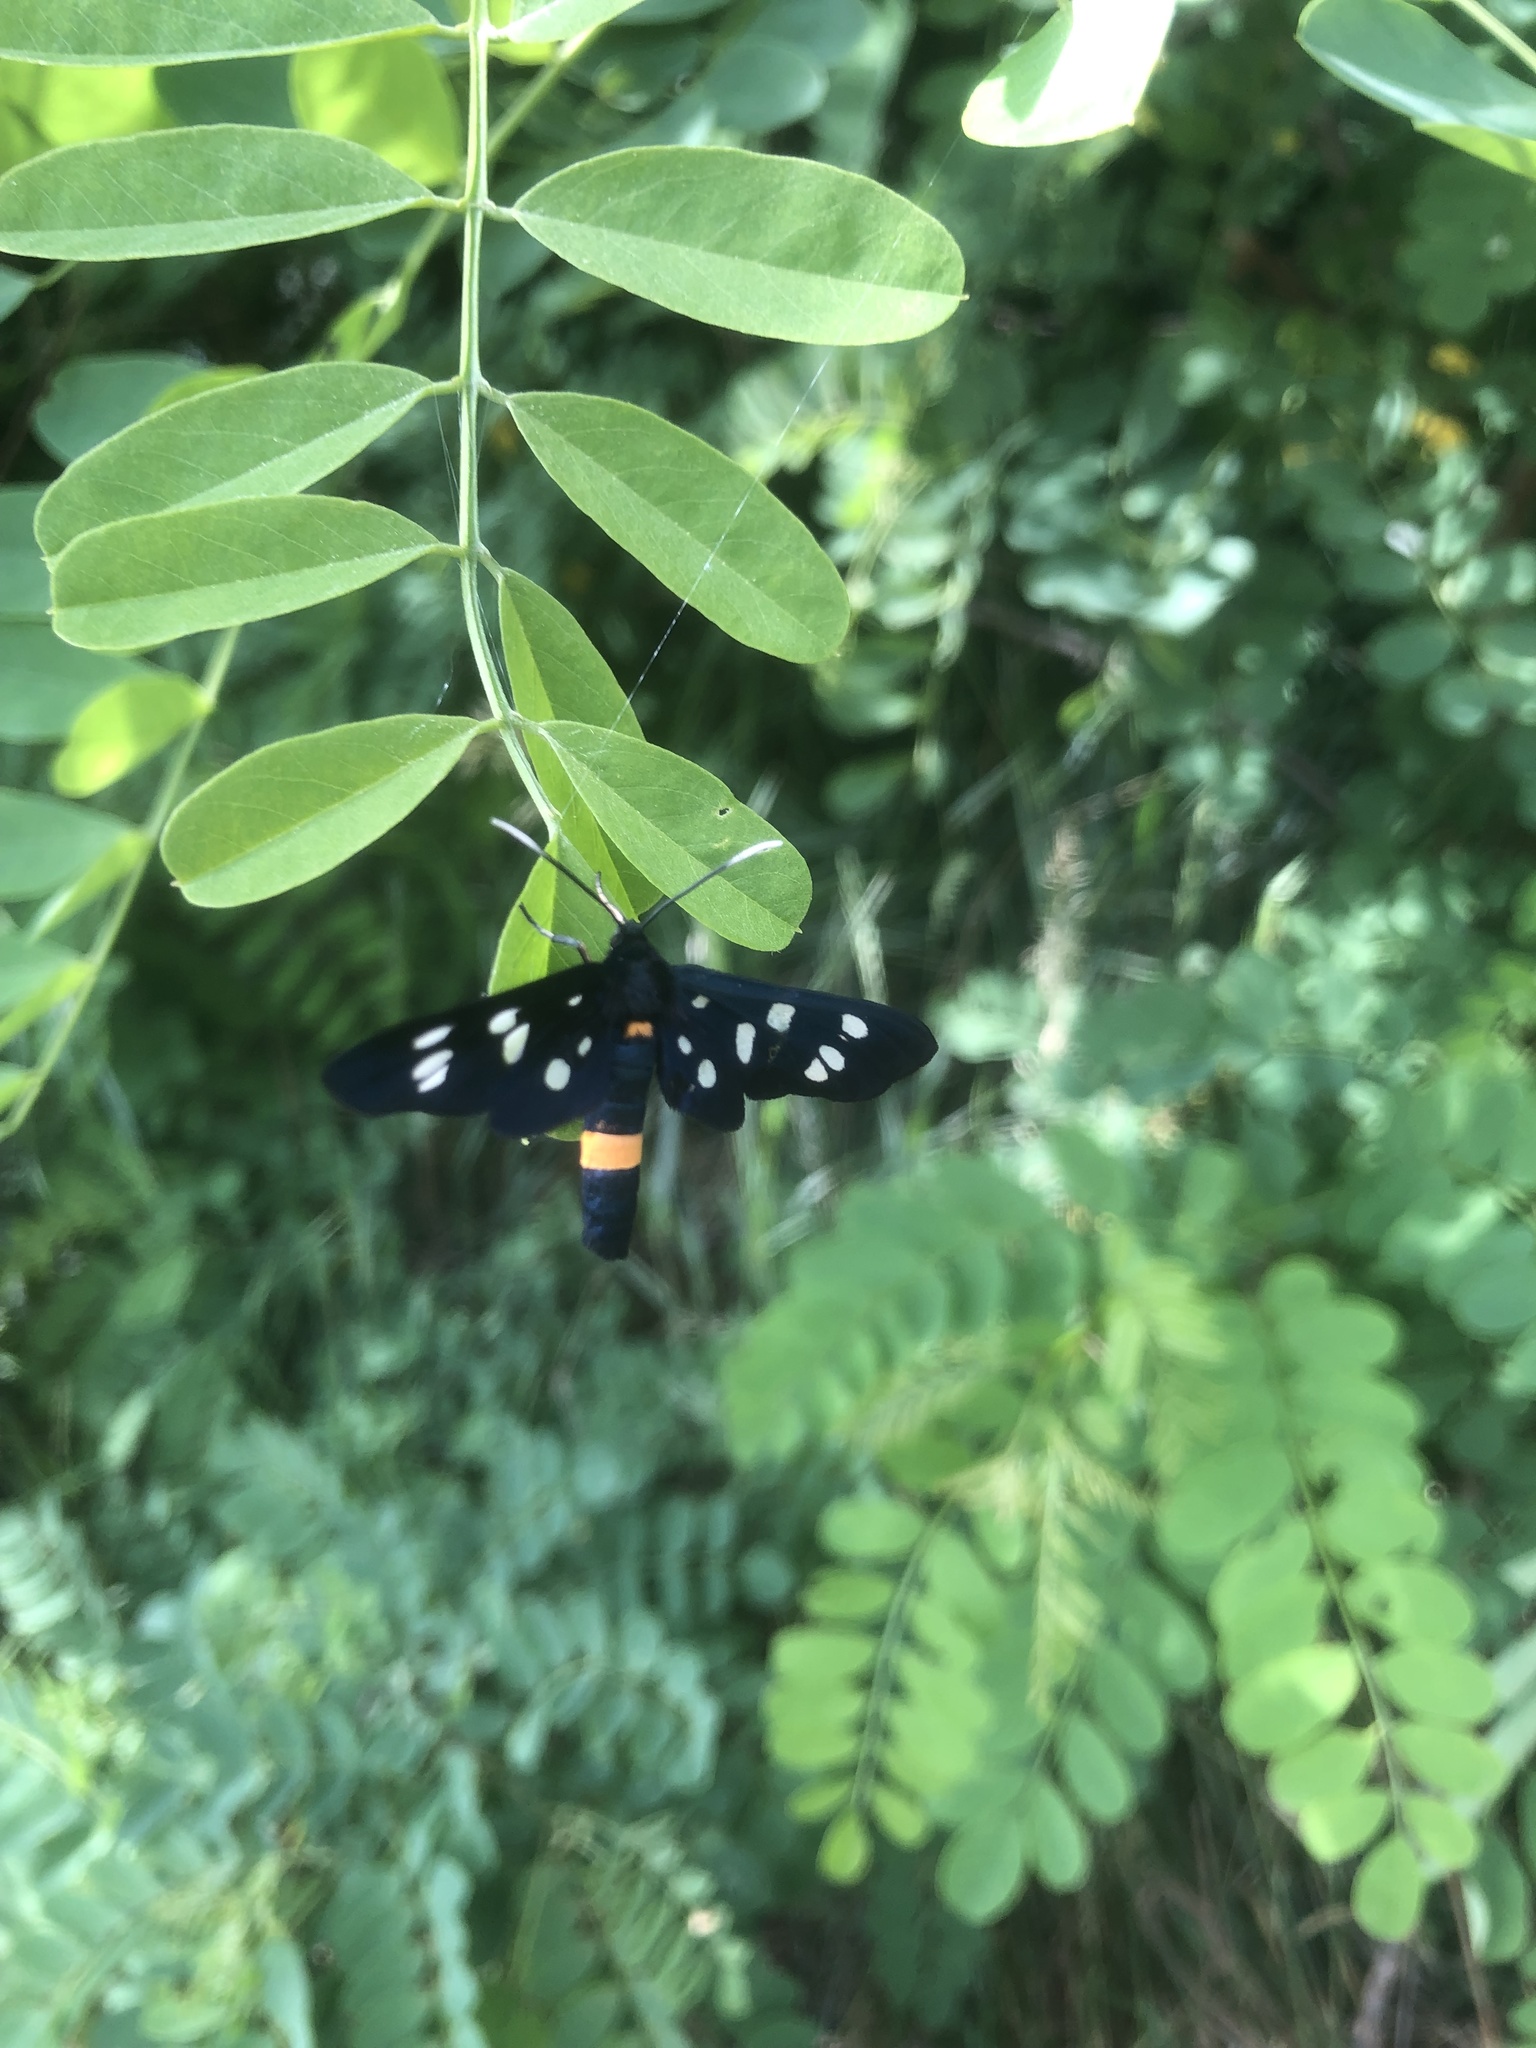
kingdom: Animalia
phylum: Arthropoda
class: Insecta
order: Lepidoptera
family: Erebidae
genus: Amata
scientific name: Amata phegea
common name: Nine-spotted
